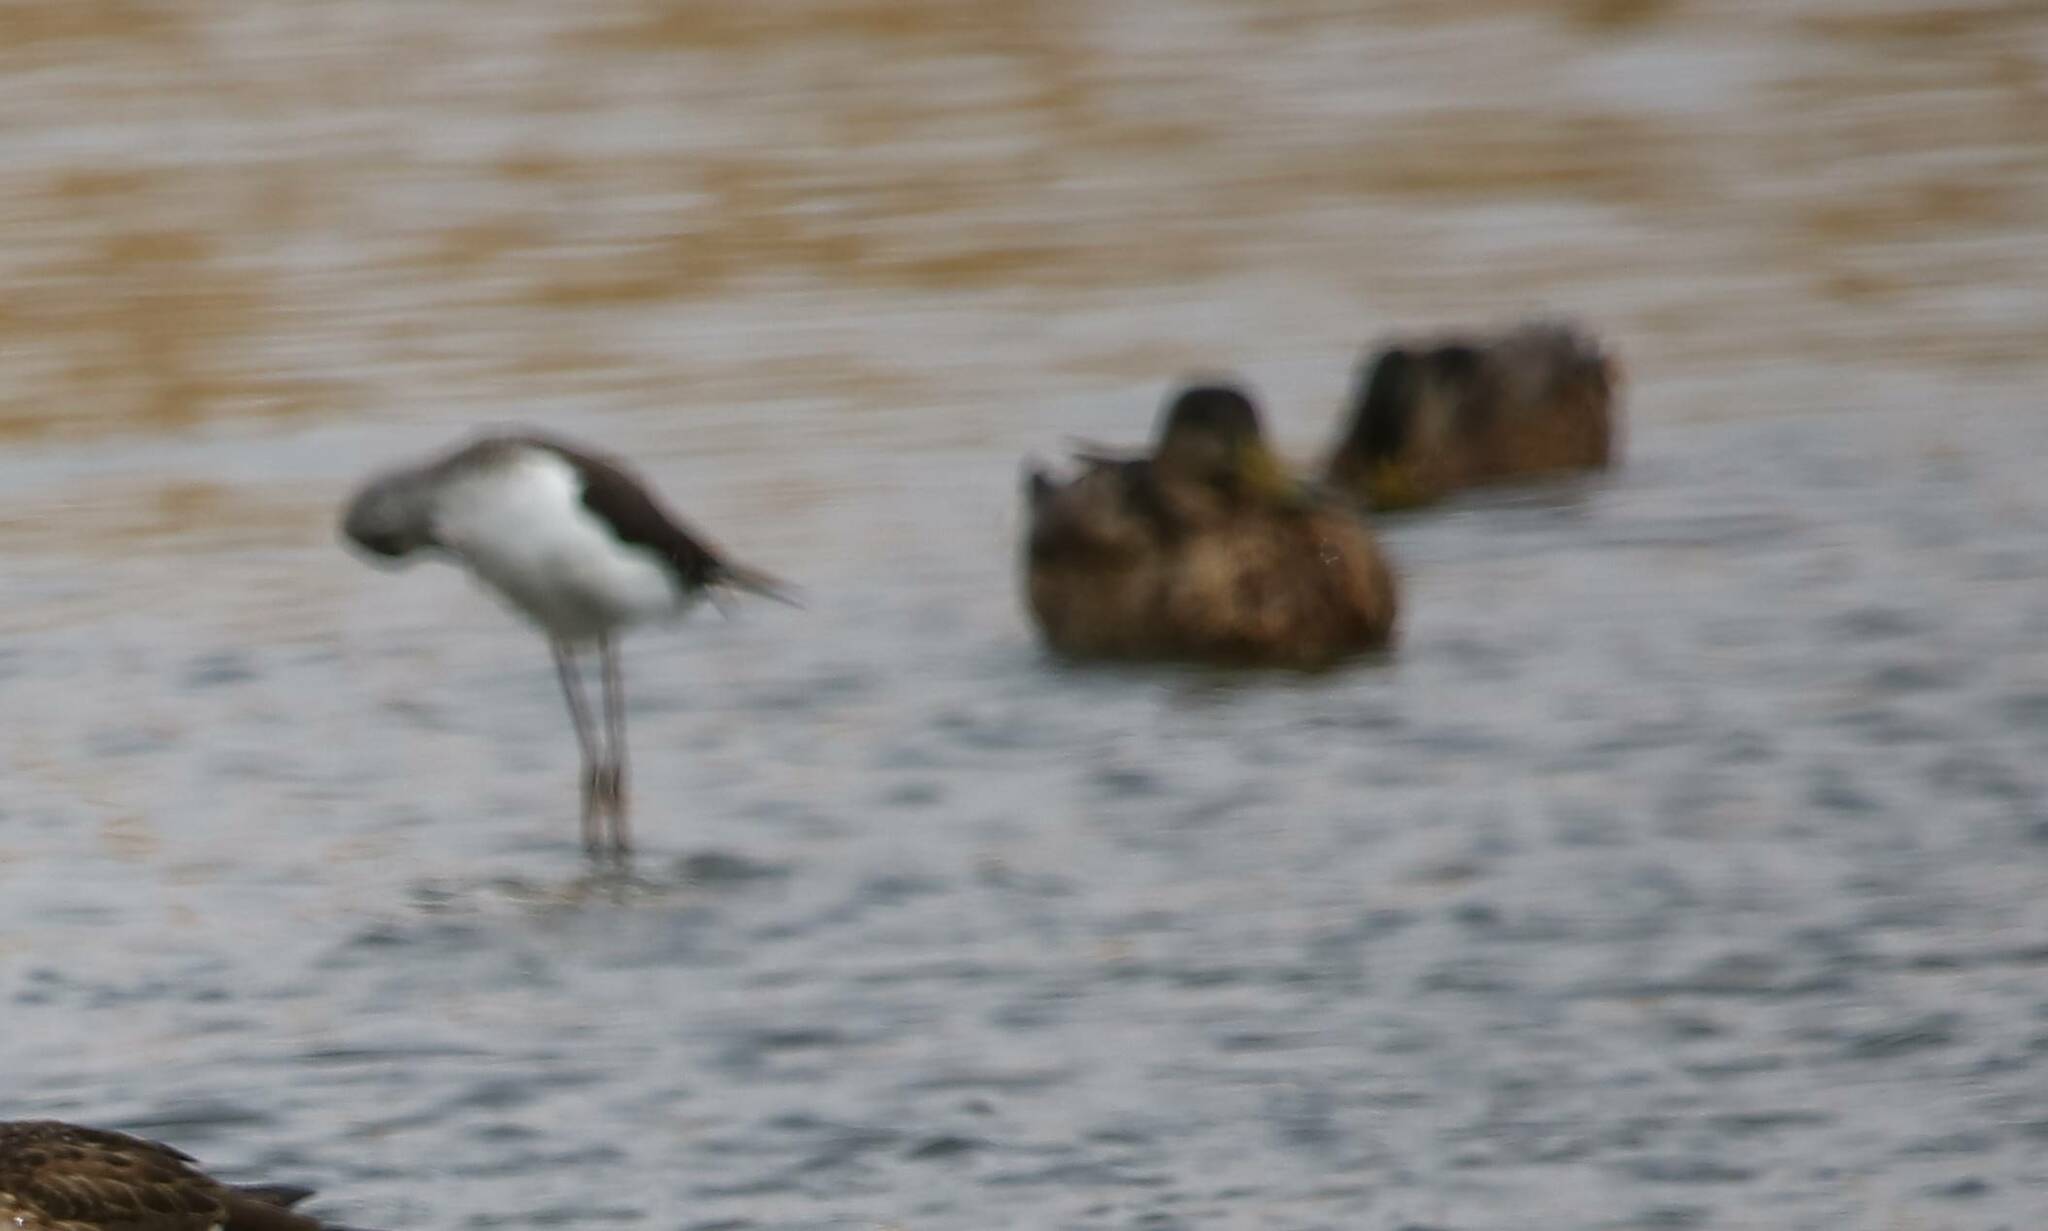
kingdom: Animalia
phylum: Chordata
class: Aves
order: Charadriiformes
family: Recurvirostridae
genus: Himantopus
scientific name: Himantopus himantopus
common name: Black-winged stilt
